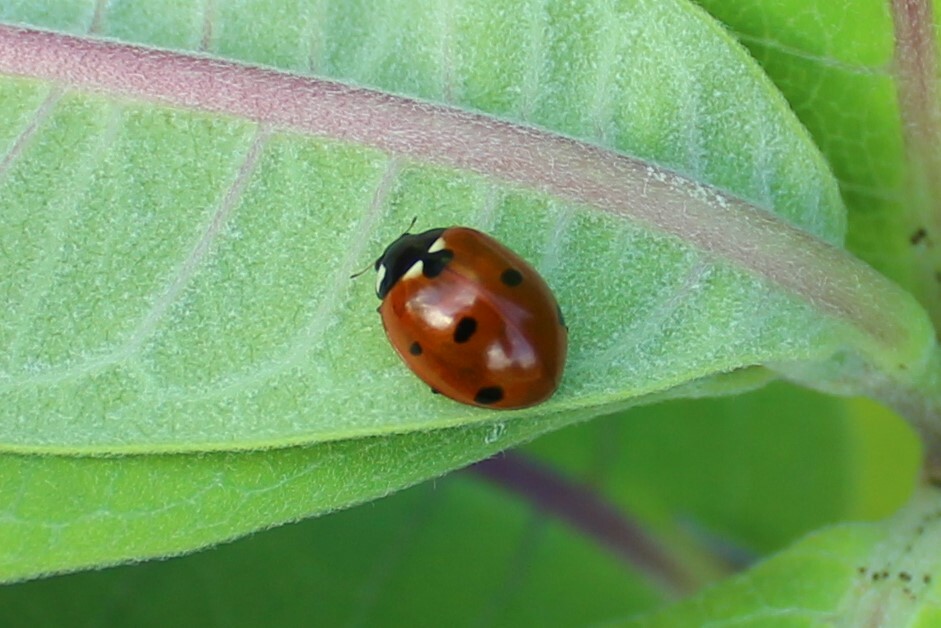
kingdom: Animalia
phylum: Arthropoda
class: Insecta
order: Coleoptera
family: Coccinellidae
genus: Coccinella
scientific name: Coccinella septempunctata
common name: Sevenspotted lady beetle
